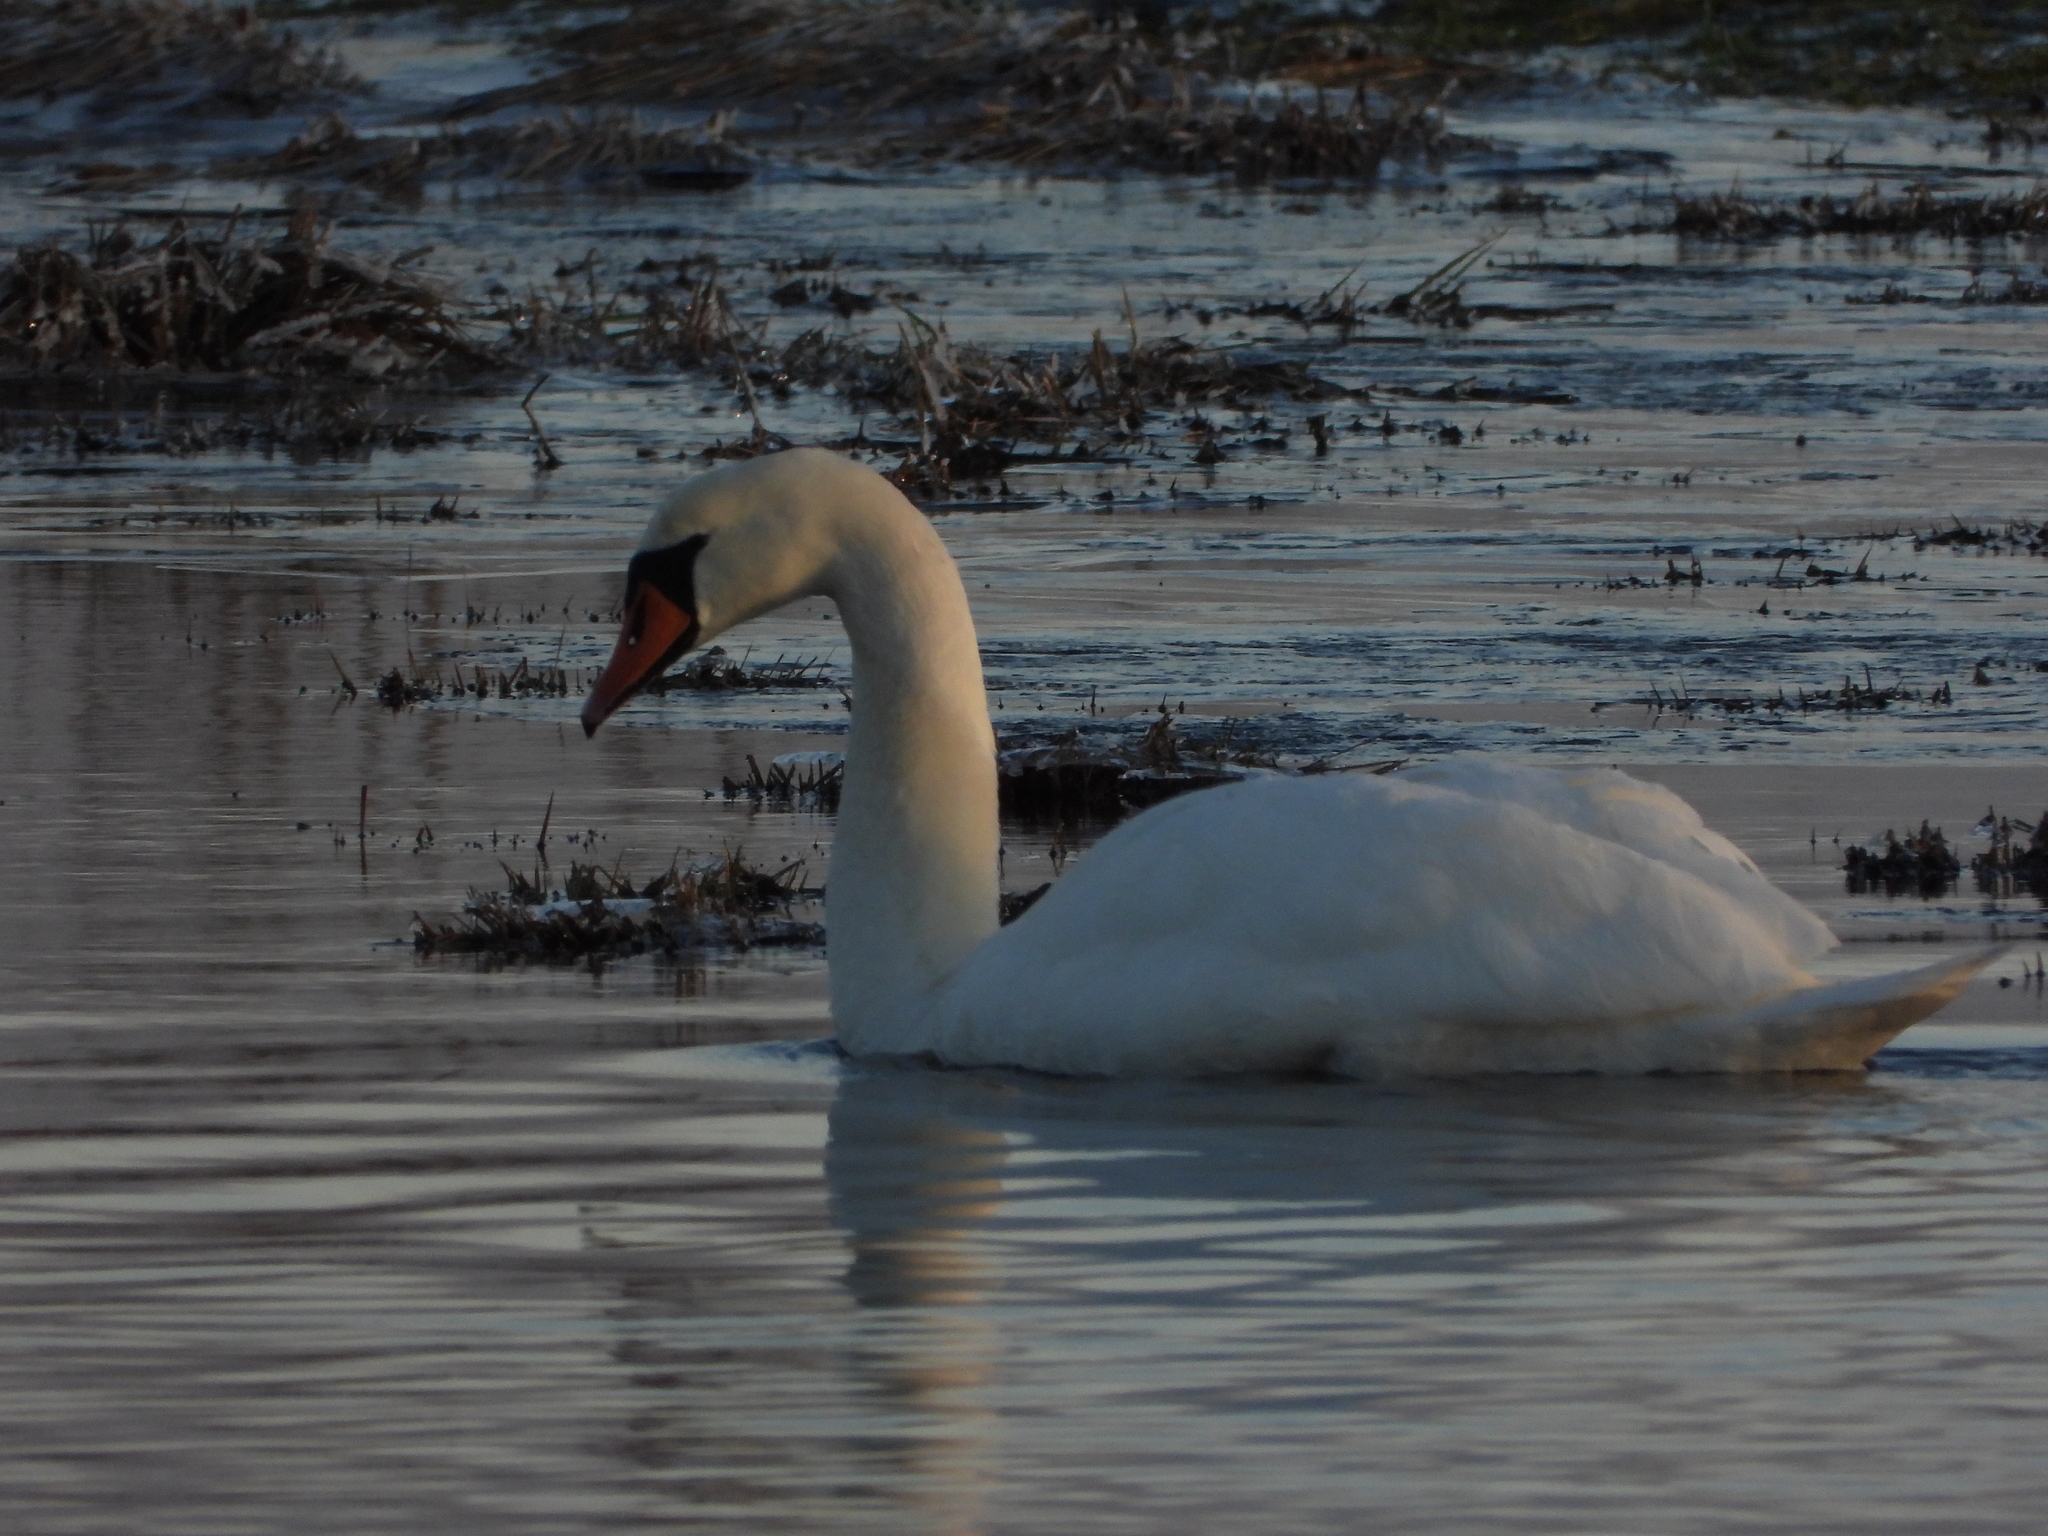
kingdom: Animalia
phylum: Chordata
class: Aves
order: Anseriformes
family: Anatidae
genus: Cygnus
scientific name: Cygnus olor
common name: Mute swan
